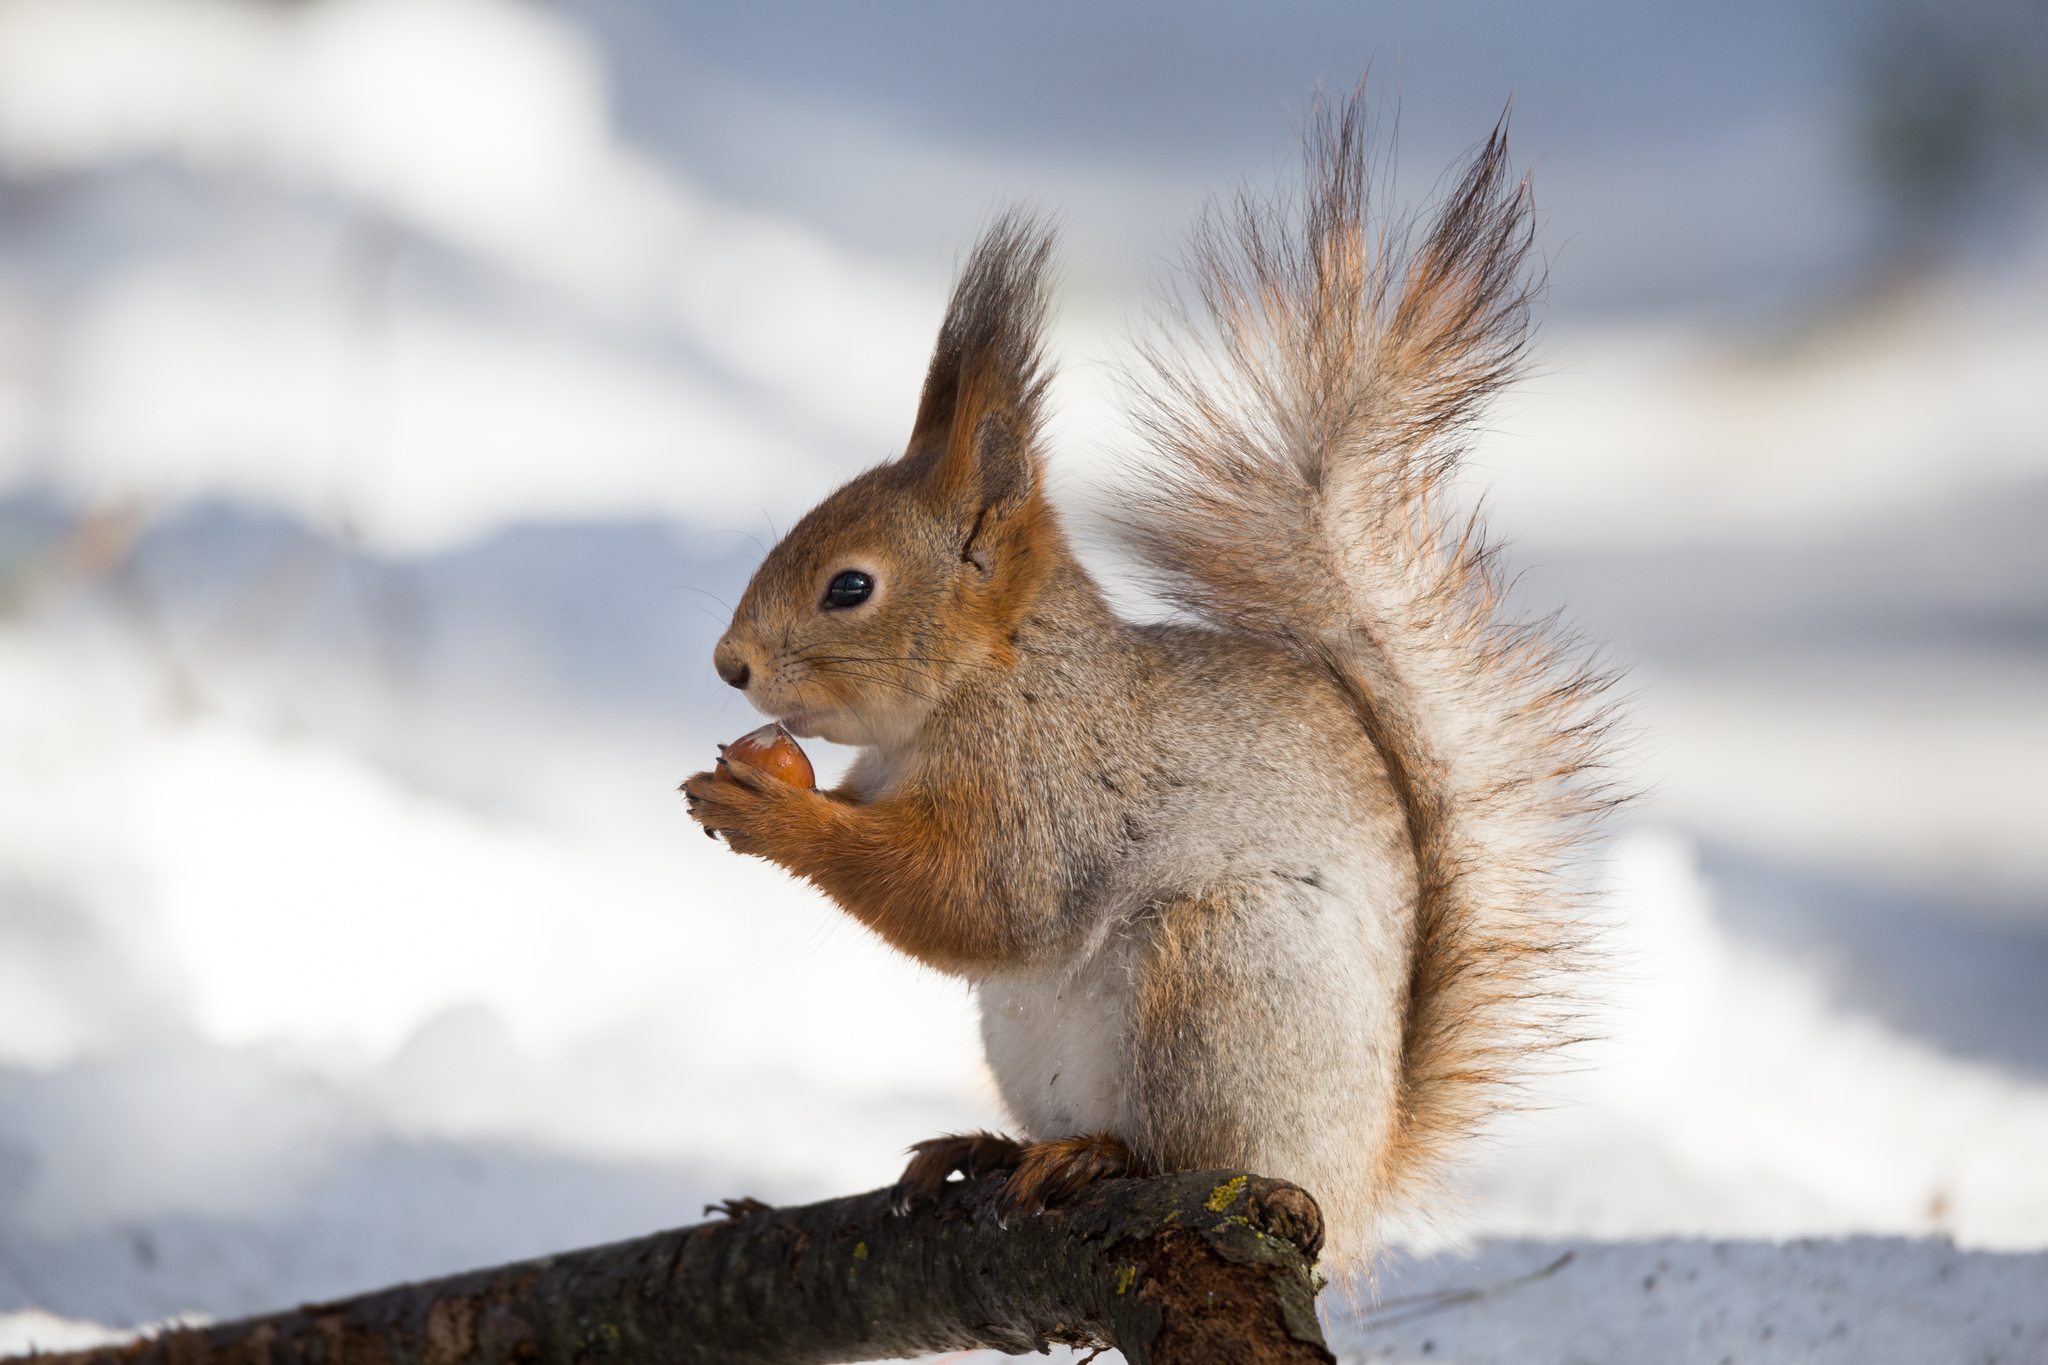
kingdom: Animalia
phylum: Chordata
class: Mammalia
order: Rodentia
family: Sciuridae
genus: Sciurus
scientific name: Sciurus vulgaris
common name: Eurasian red squirrel
